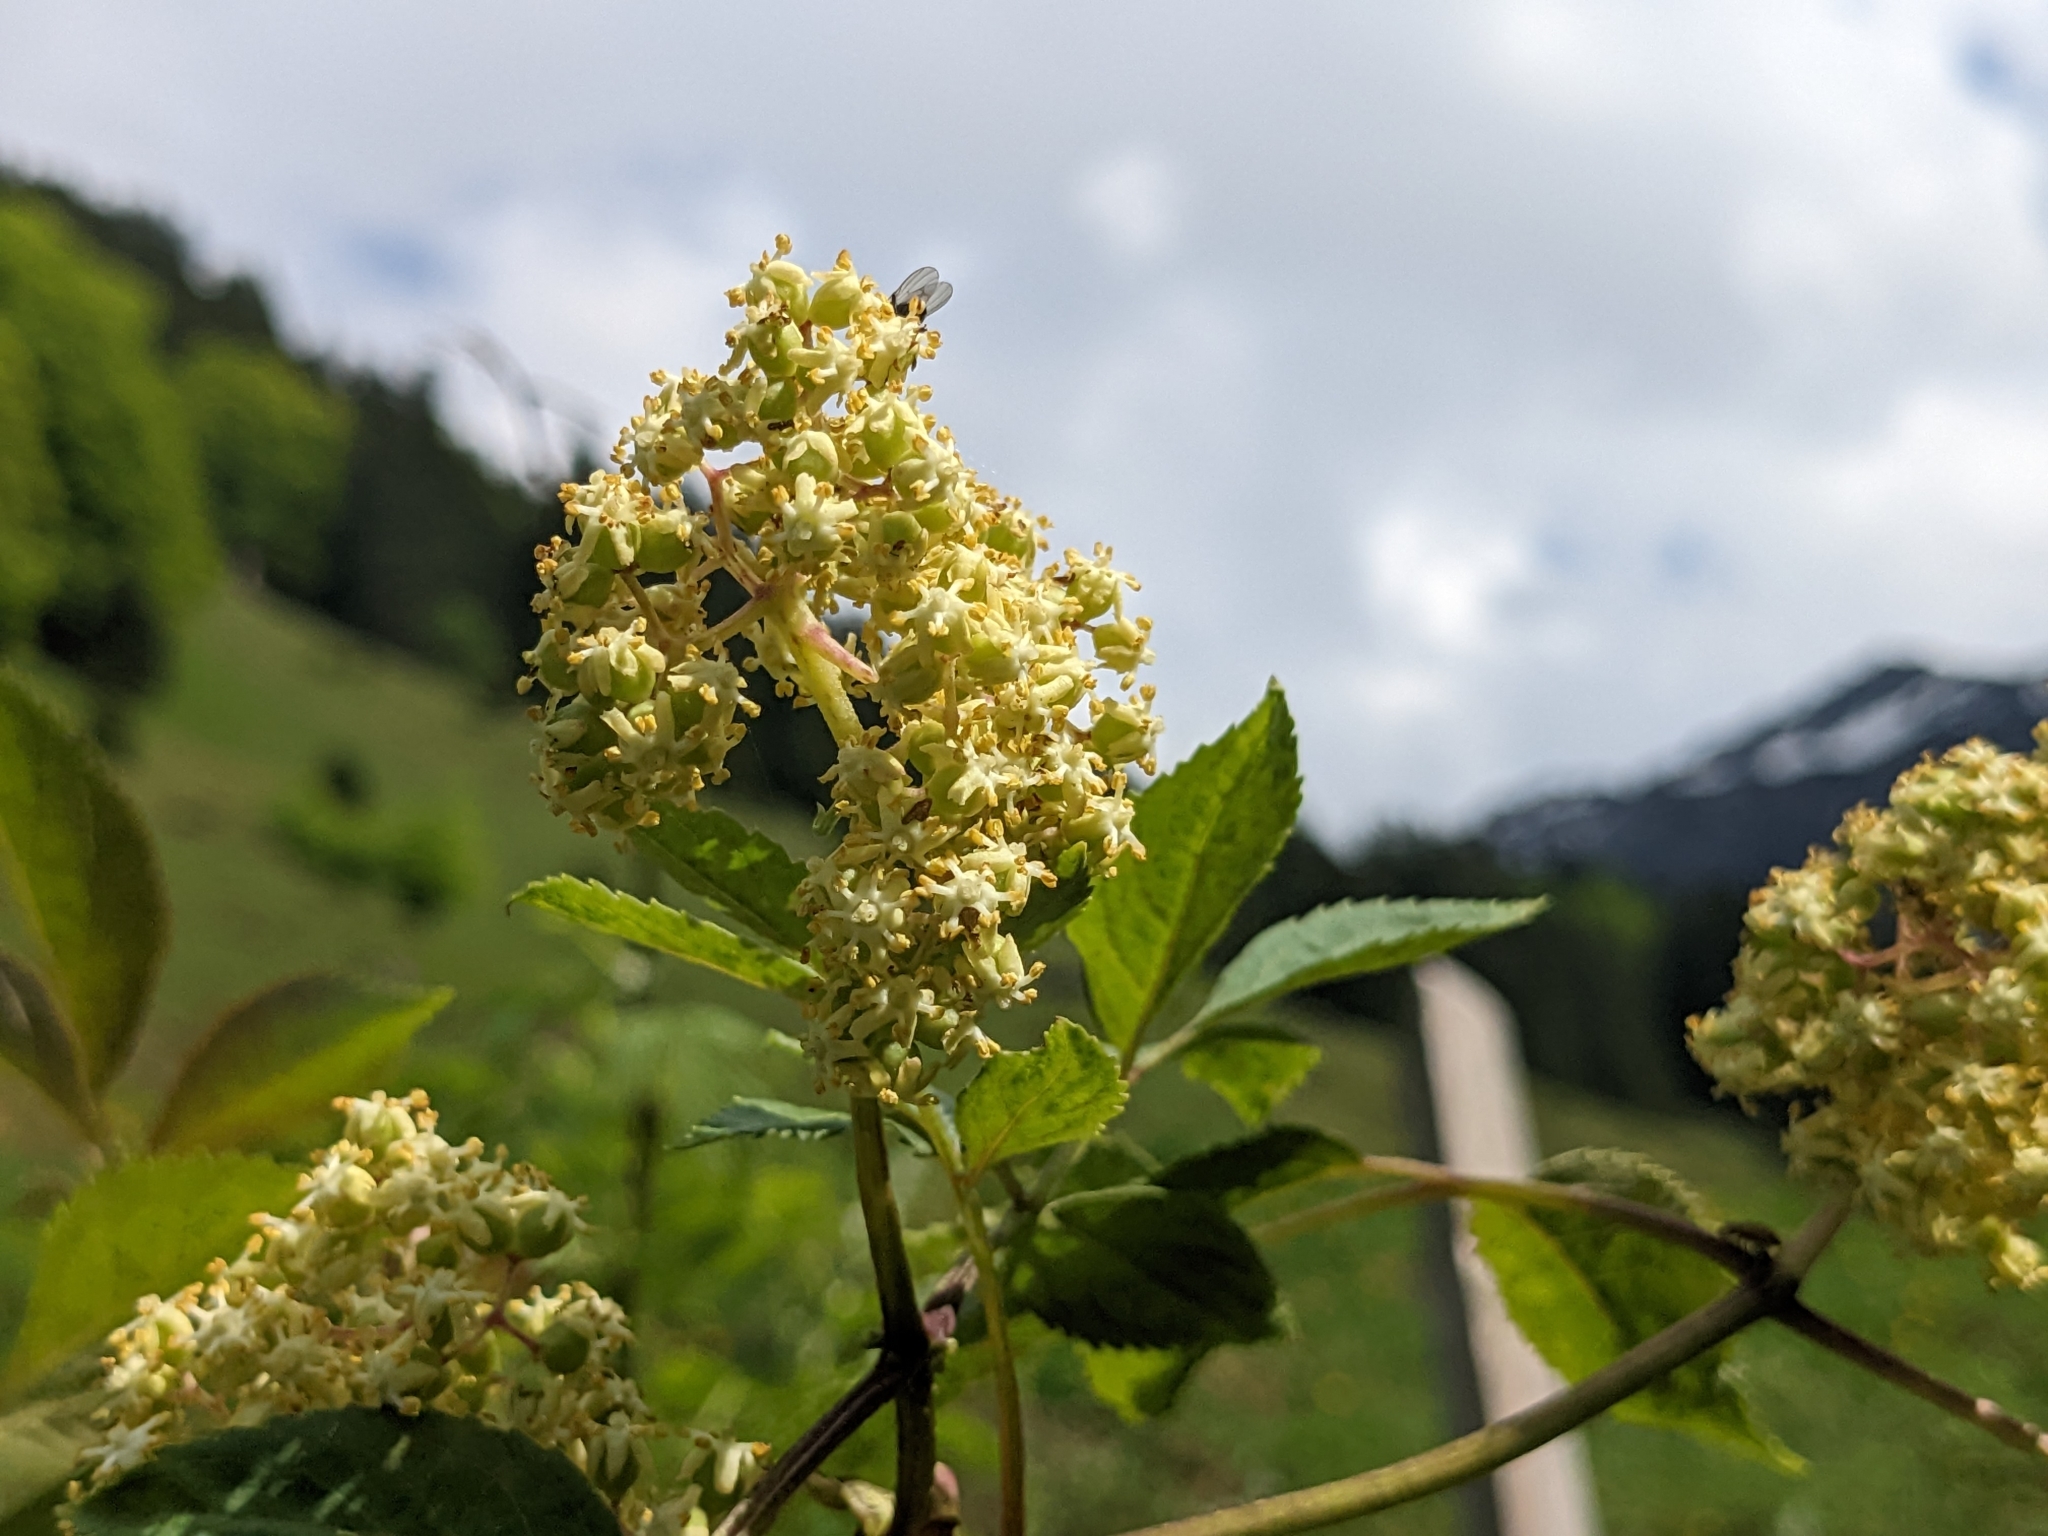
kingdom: Plantae
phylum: Tracheophyta
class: Magnoliopsida
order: Dipsacales
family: Viburnaceae
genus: Sambucus
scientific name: Sambucus racemosa
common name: Red-berried elder
